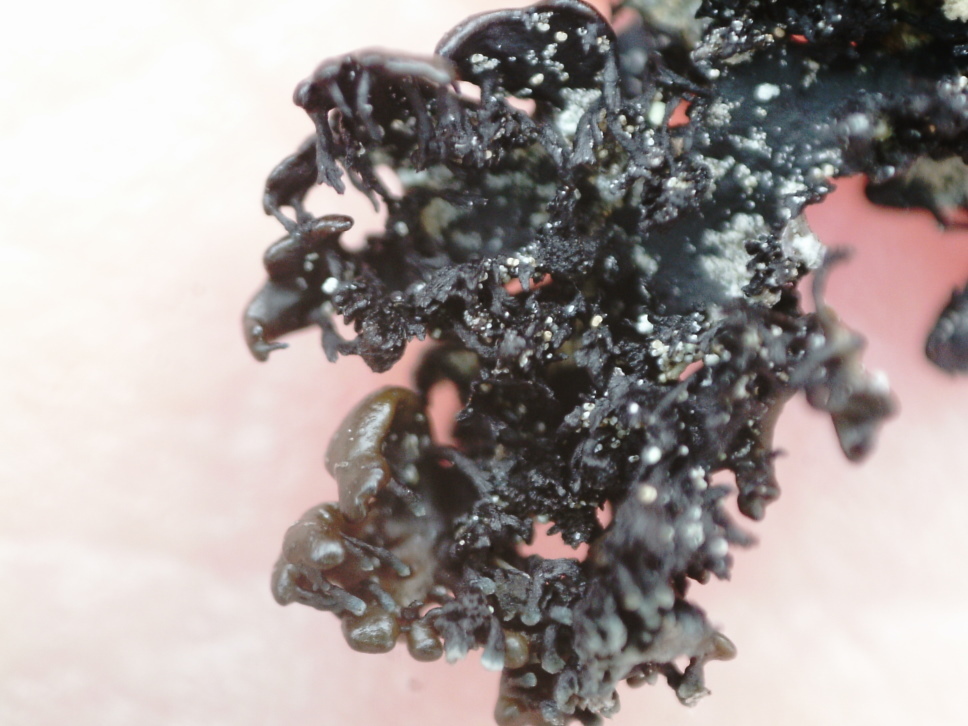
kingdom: Fungi
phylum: Ascomycota
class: Lecanoromycetes
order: Lecanorales
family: Parmeliaceae
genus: Melanelia
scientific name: Melanelia stygia
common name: Alpine camouflage lichen
